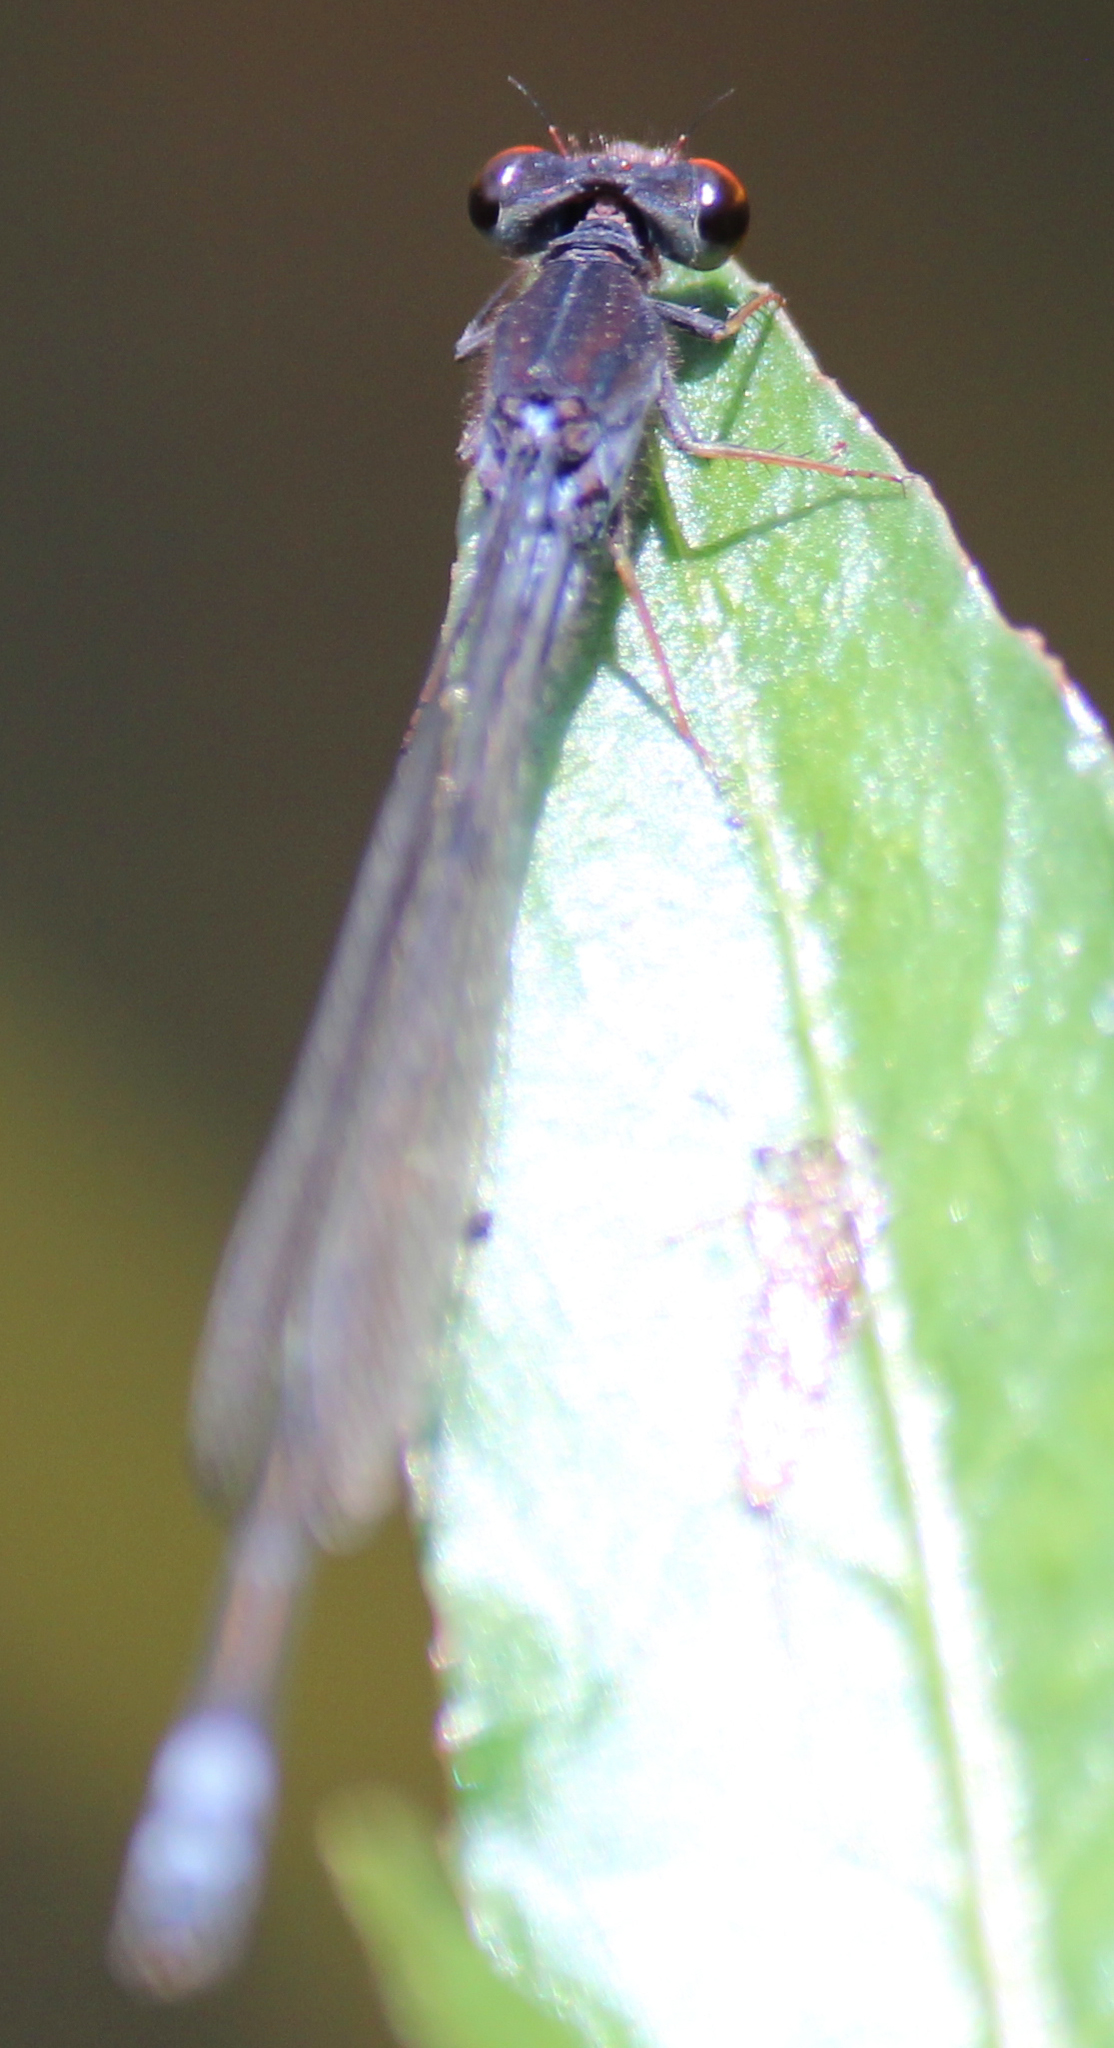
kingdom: Animalia
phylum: Arthropoda
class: Insecta
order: Odonata
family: Coenagrionidae
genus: Pseudagrion
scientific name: Pseudagrion hamoni
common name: Swarthy sprite
